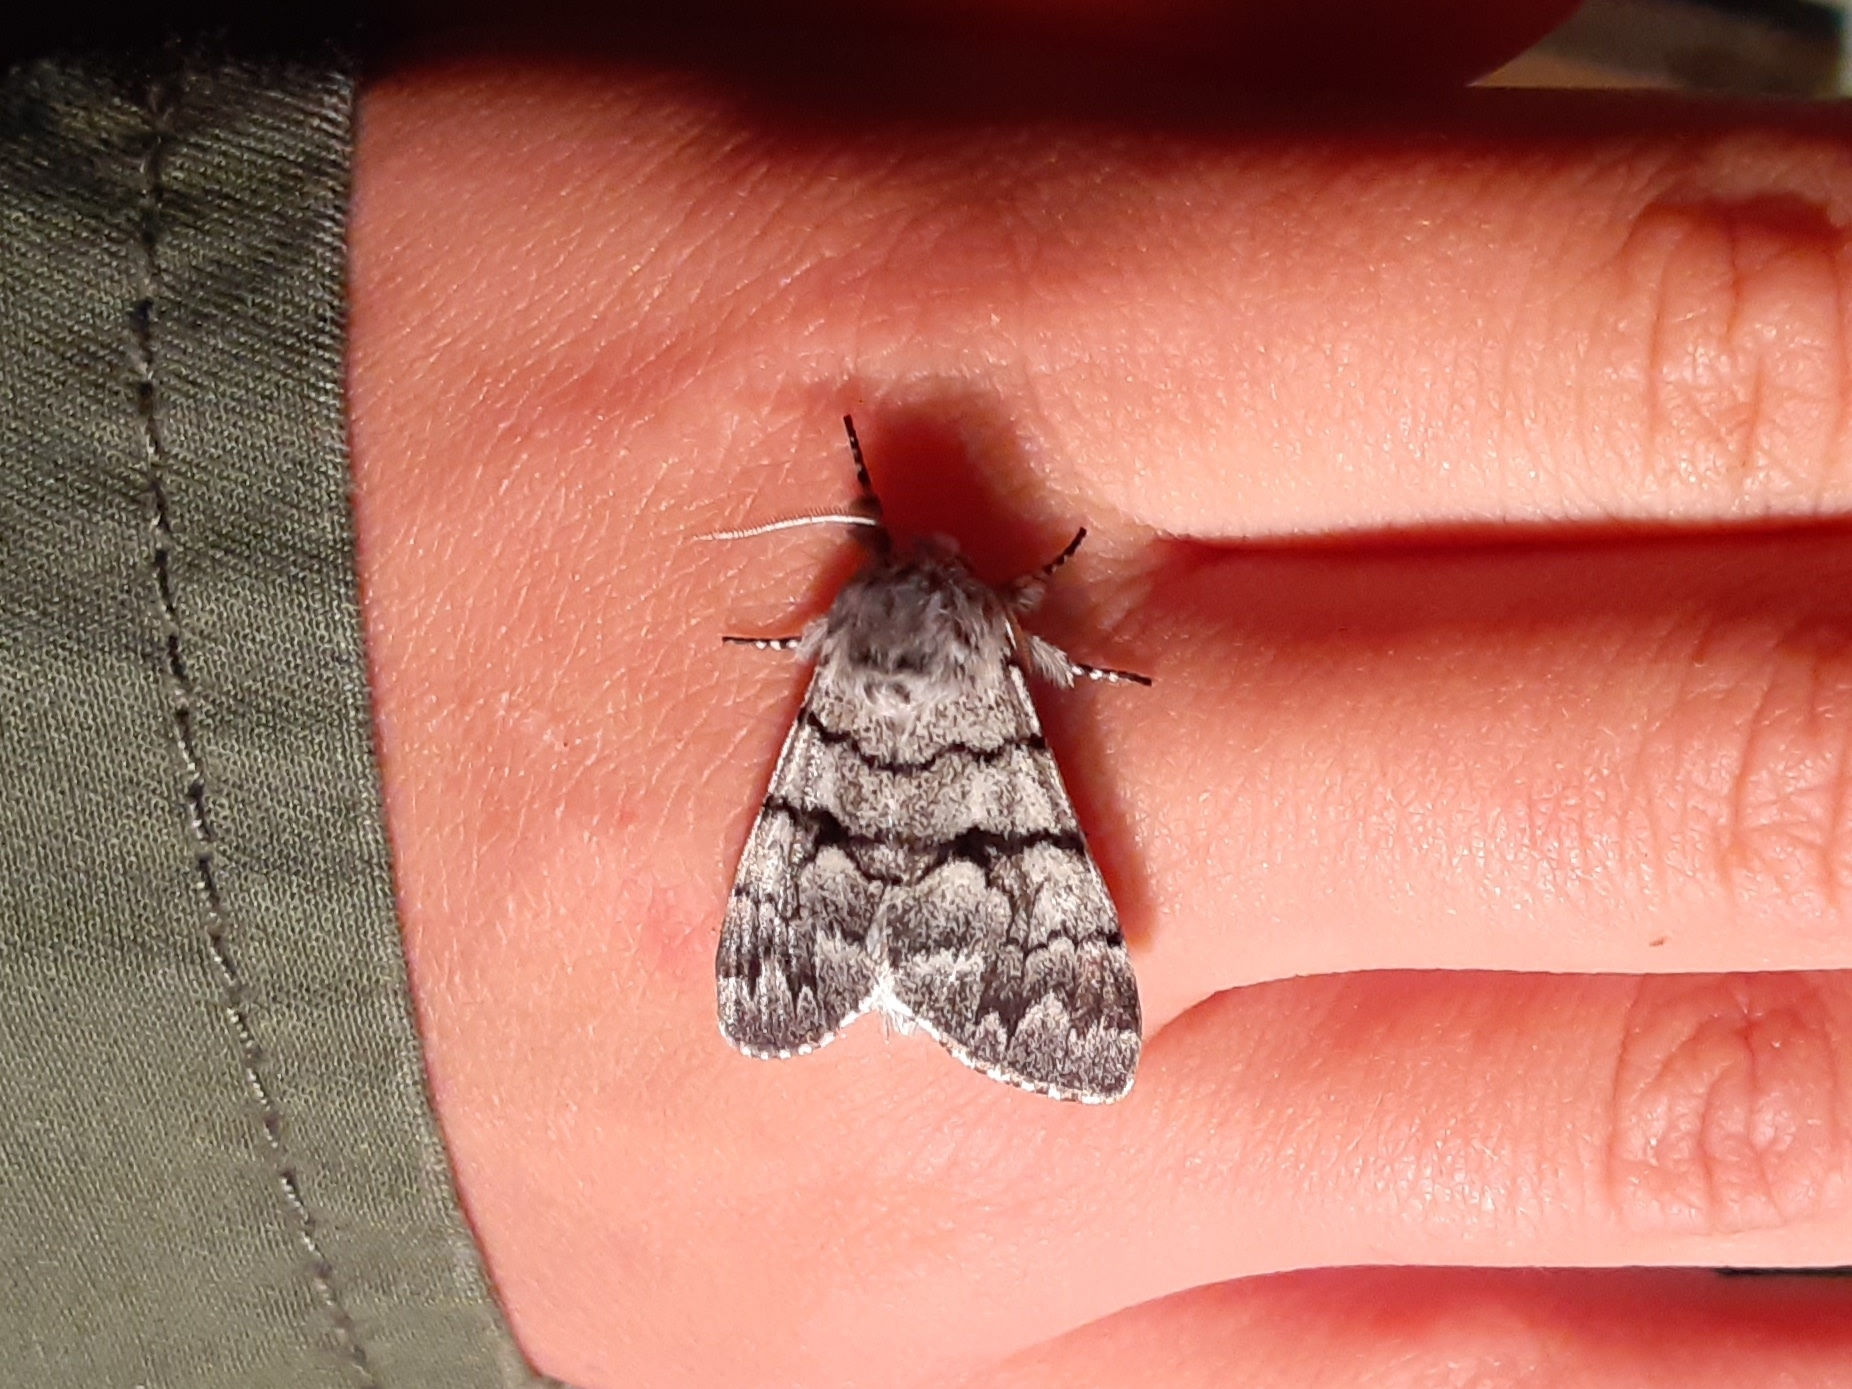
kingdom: Animalia
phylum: Arthropoda
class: Insecta
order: Lepidoptera
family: Noctuidae
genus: Panthea
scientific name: Panthea furcilla
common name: Eastern panthea moth
